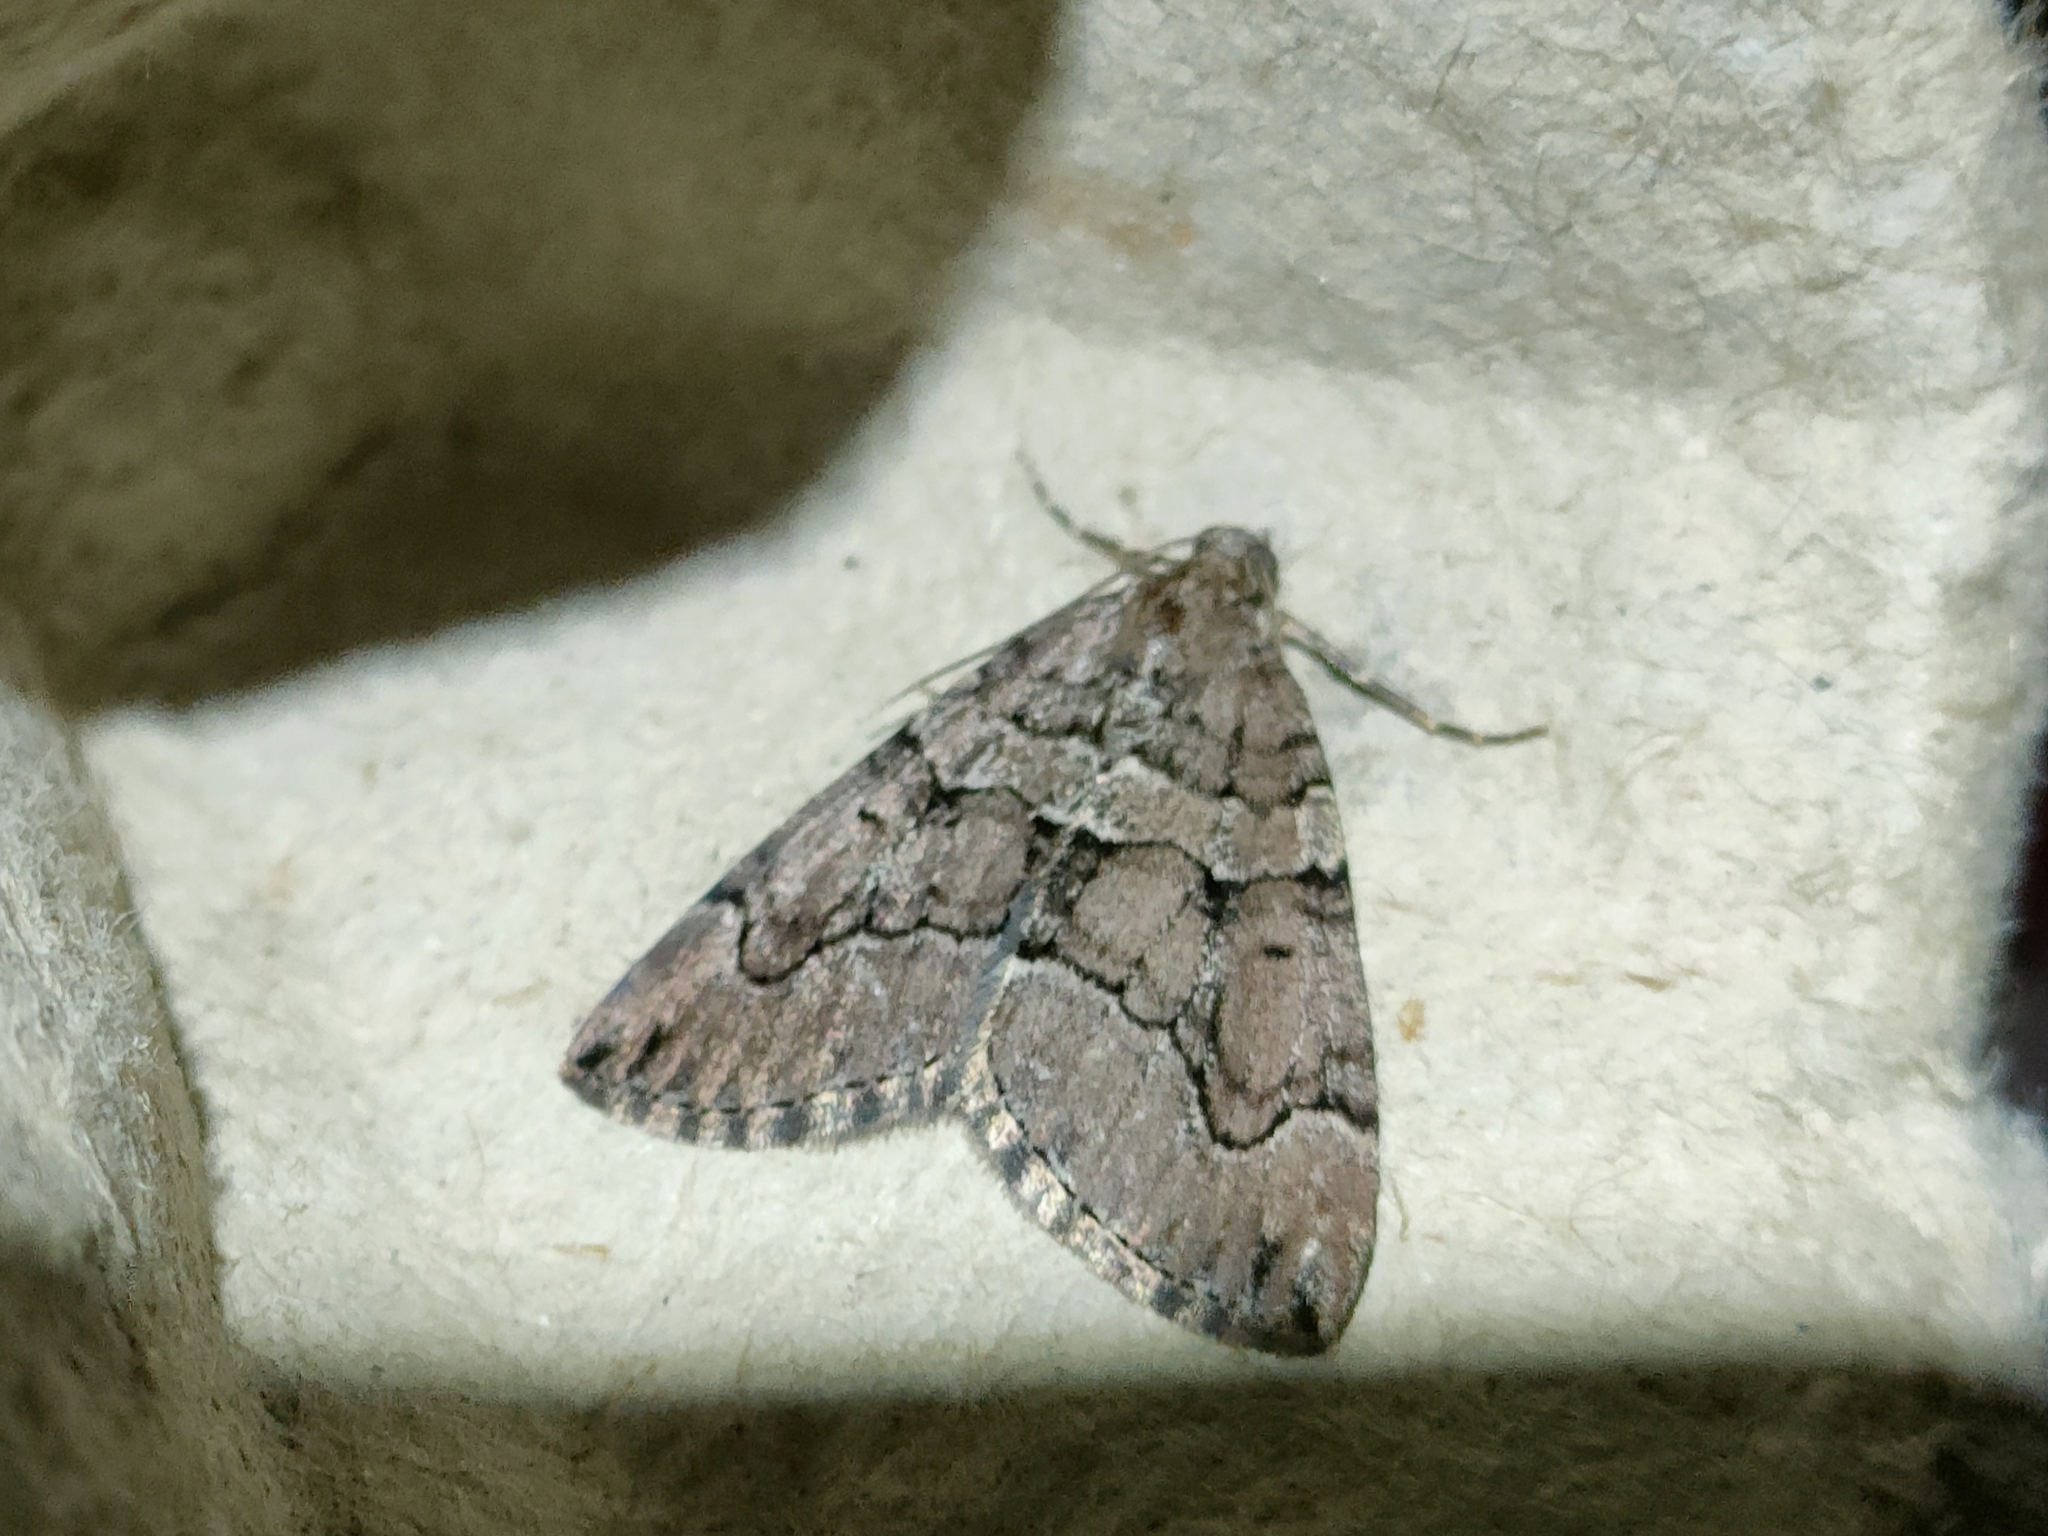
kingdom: Animalia
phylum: Arthropoda
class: Insecta
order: Lepidoptera
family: Geometridae
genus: Thera
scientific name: Thera cognata
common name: Chestnut-coloured carpet
